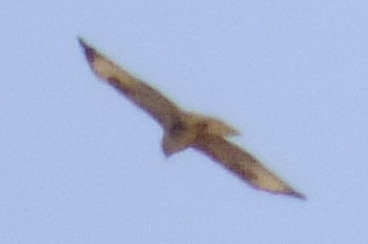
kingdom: Animalia
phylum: Chordata
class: Aves
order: Accipitriformes
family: Accipitridae
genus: Buteo
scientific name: Buteo buteo
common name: Common buzzard
